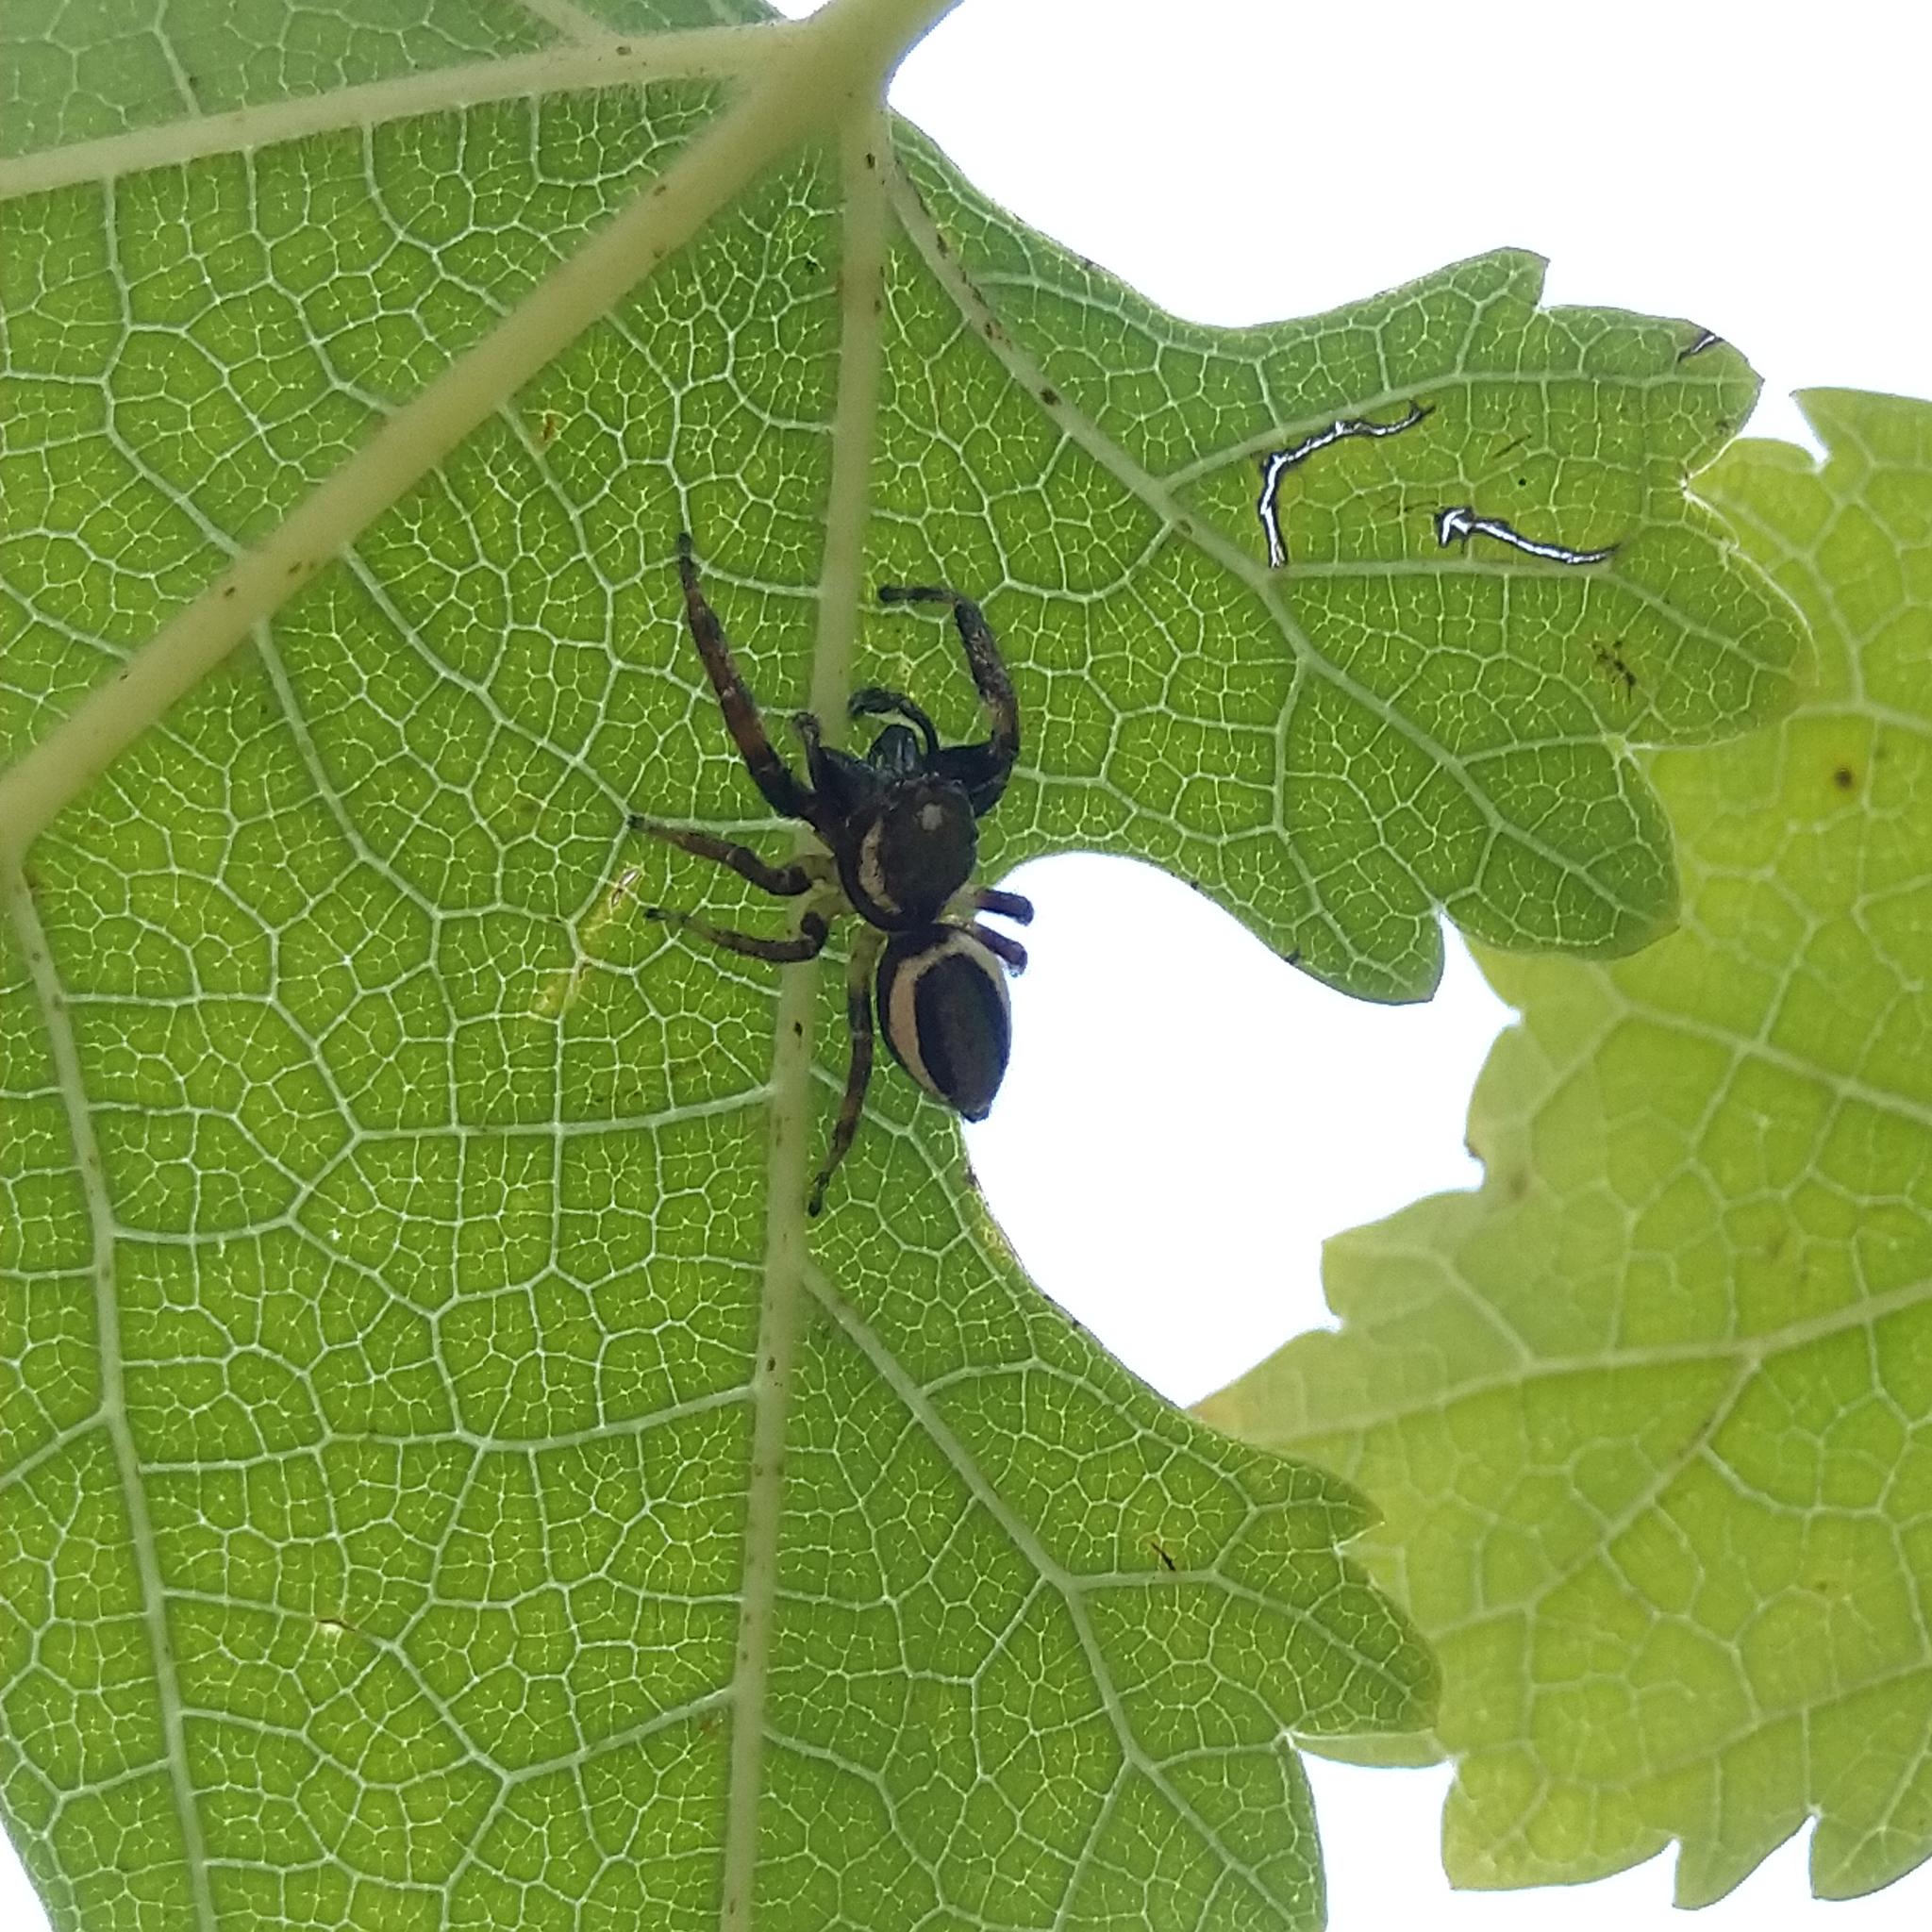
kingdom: Animalia
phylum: Arthropoda
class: Arachnida
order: Araneae
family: Salticidae
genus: Eris
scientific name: Eris militaris
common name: Bronze jumper
